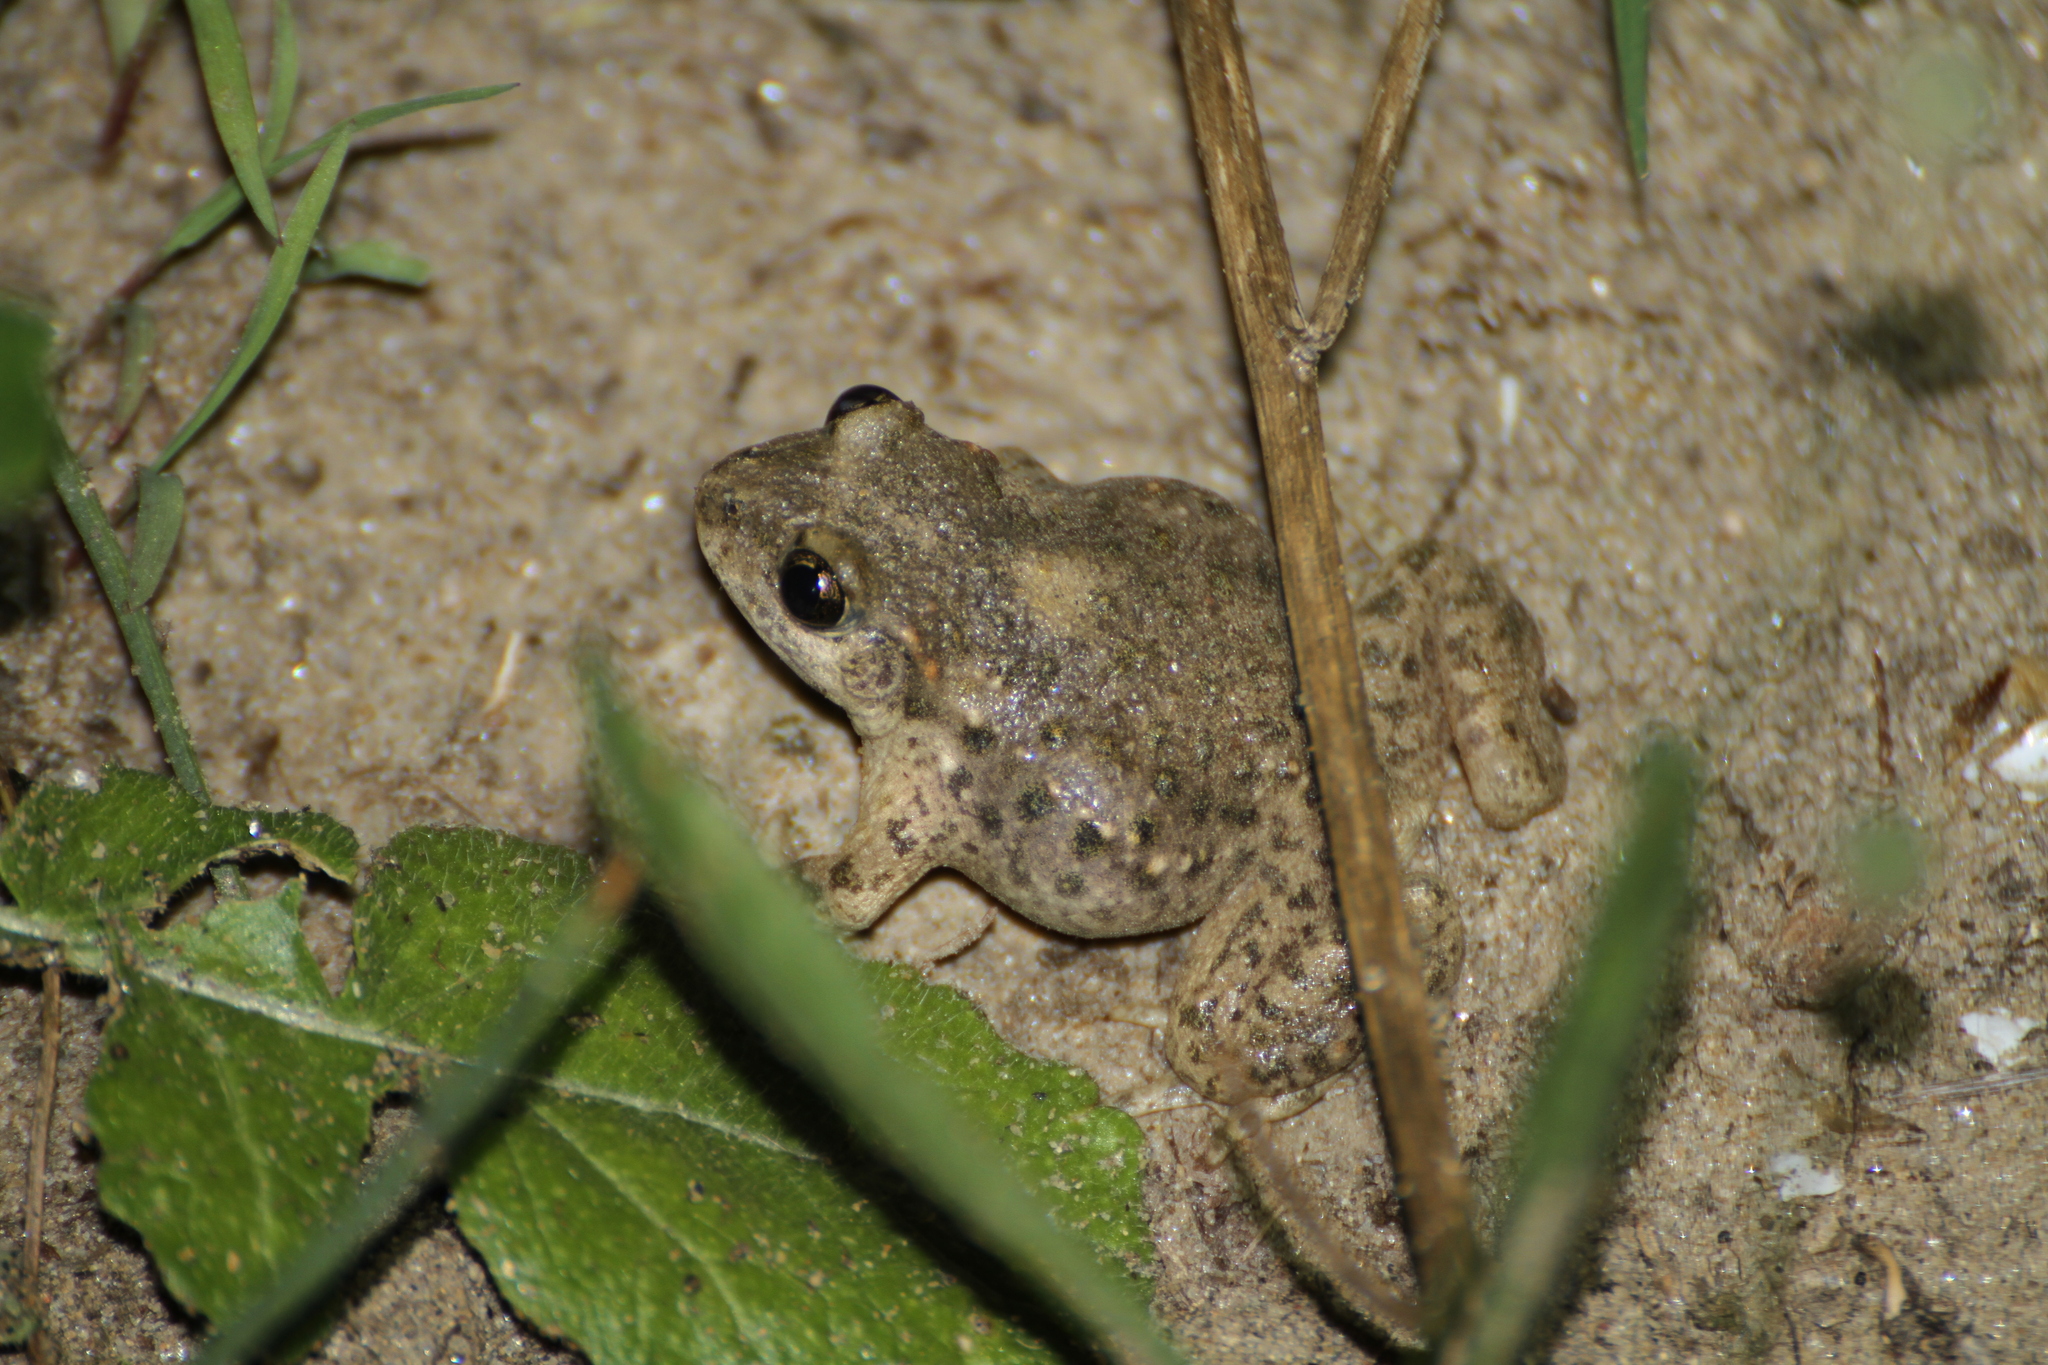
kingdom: Animalia
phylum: Chordata
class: Amphibia
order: Anura
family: Alytidae
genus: Alytes
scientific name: Alytes obstetricans
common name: Midwife toad
